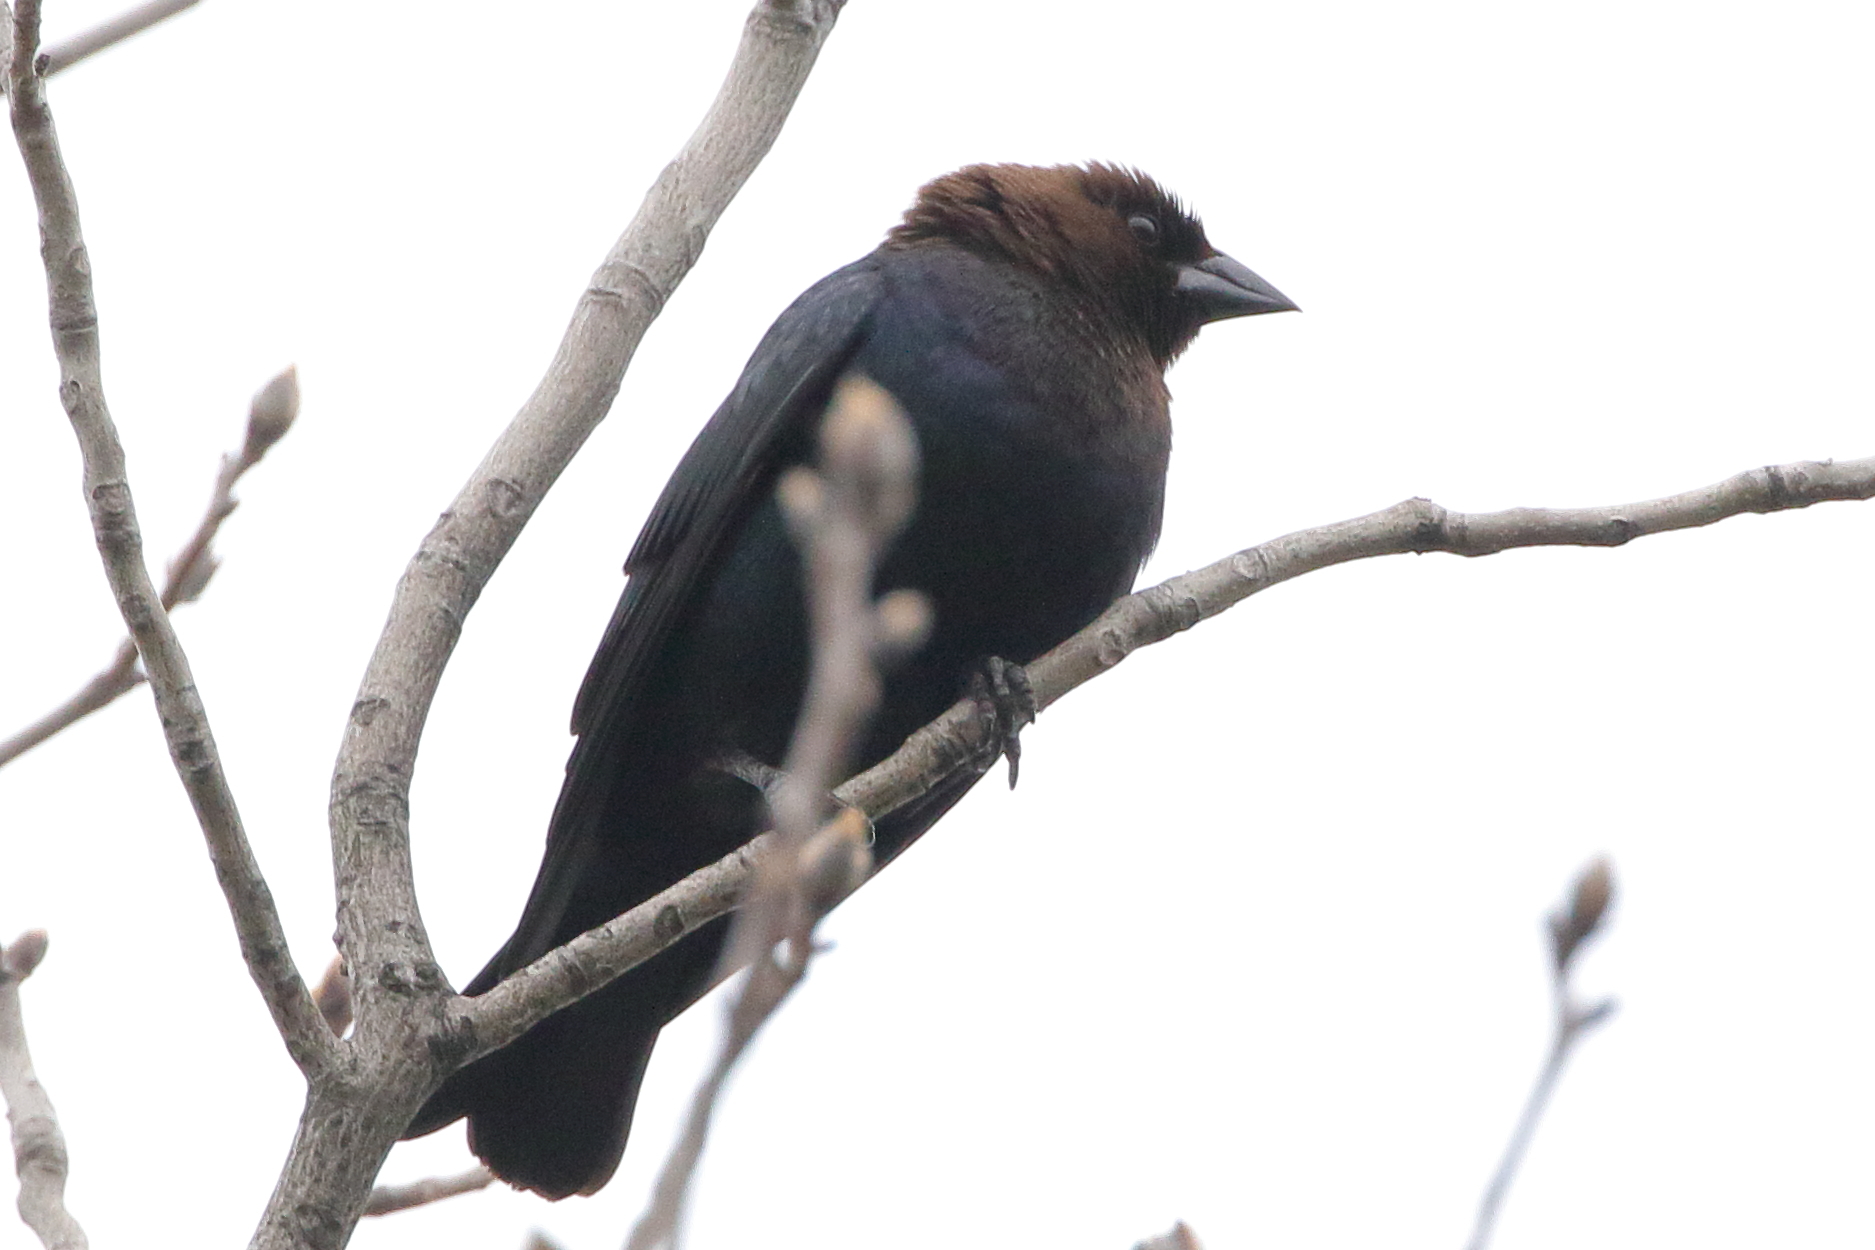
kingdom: Animalia
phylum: Chordata
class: Aves
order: Passeriformes
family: Icteridae
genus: Molothrus
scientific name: Molothrus ater
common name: Brown-headed cowbird
